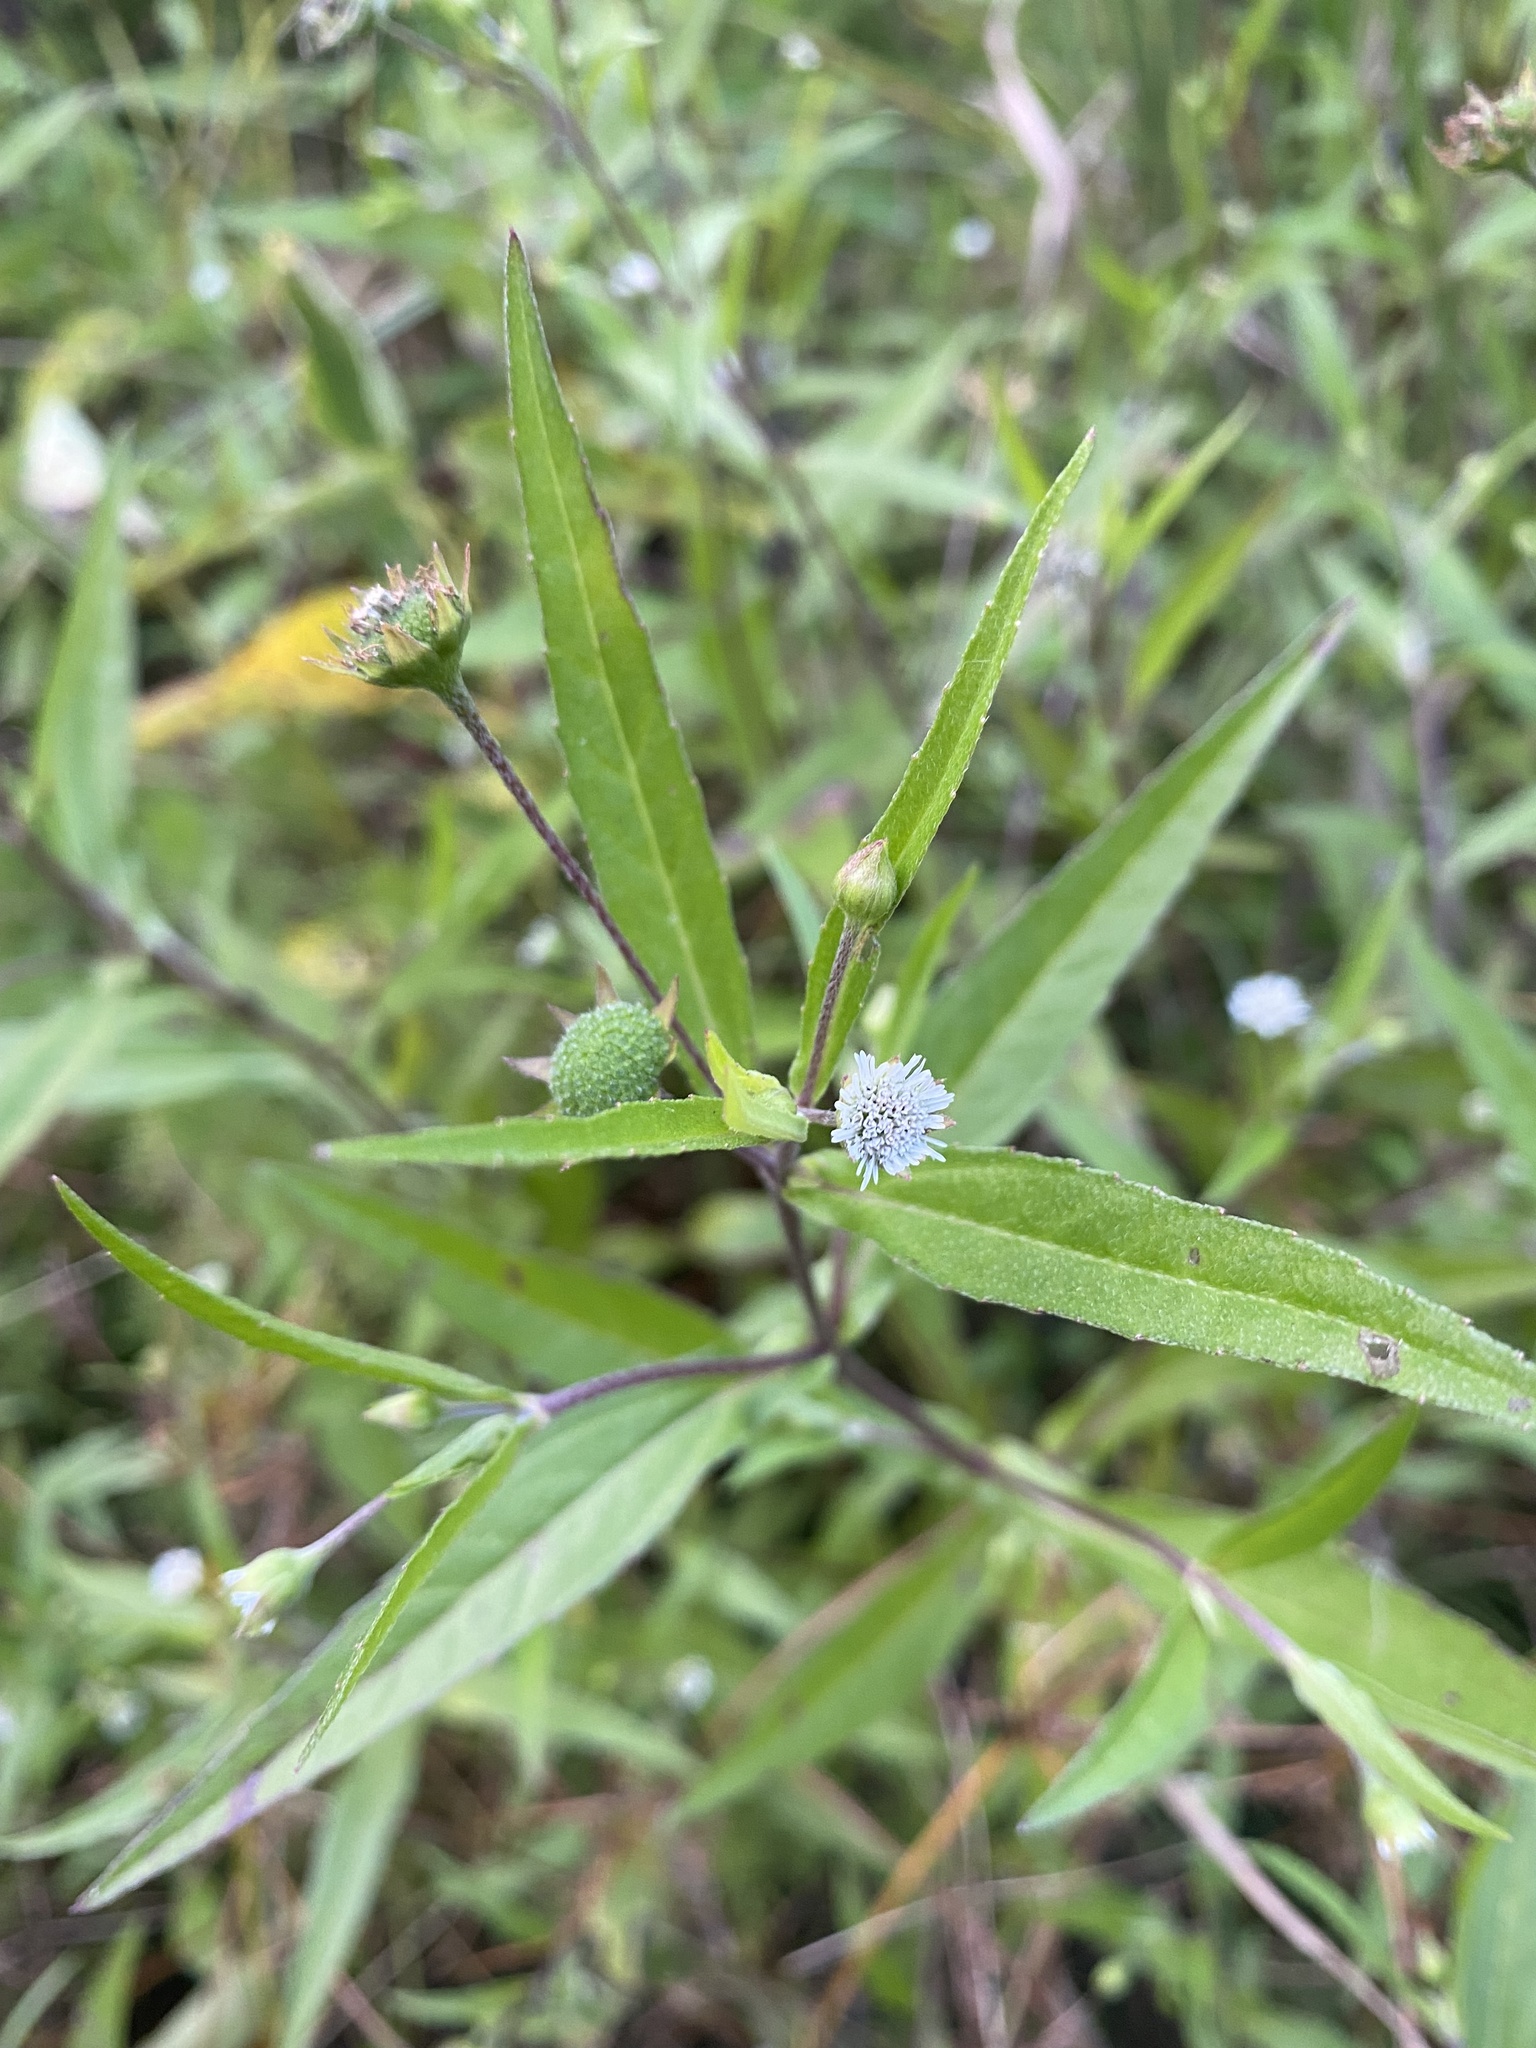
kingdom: Plantae
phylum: Tracheophyta
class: Magnoliopsida
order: Asterales
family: Asteraceae
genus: Eclipta
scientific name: Eclipta prostrata
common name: False daisy
